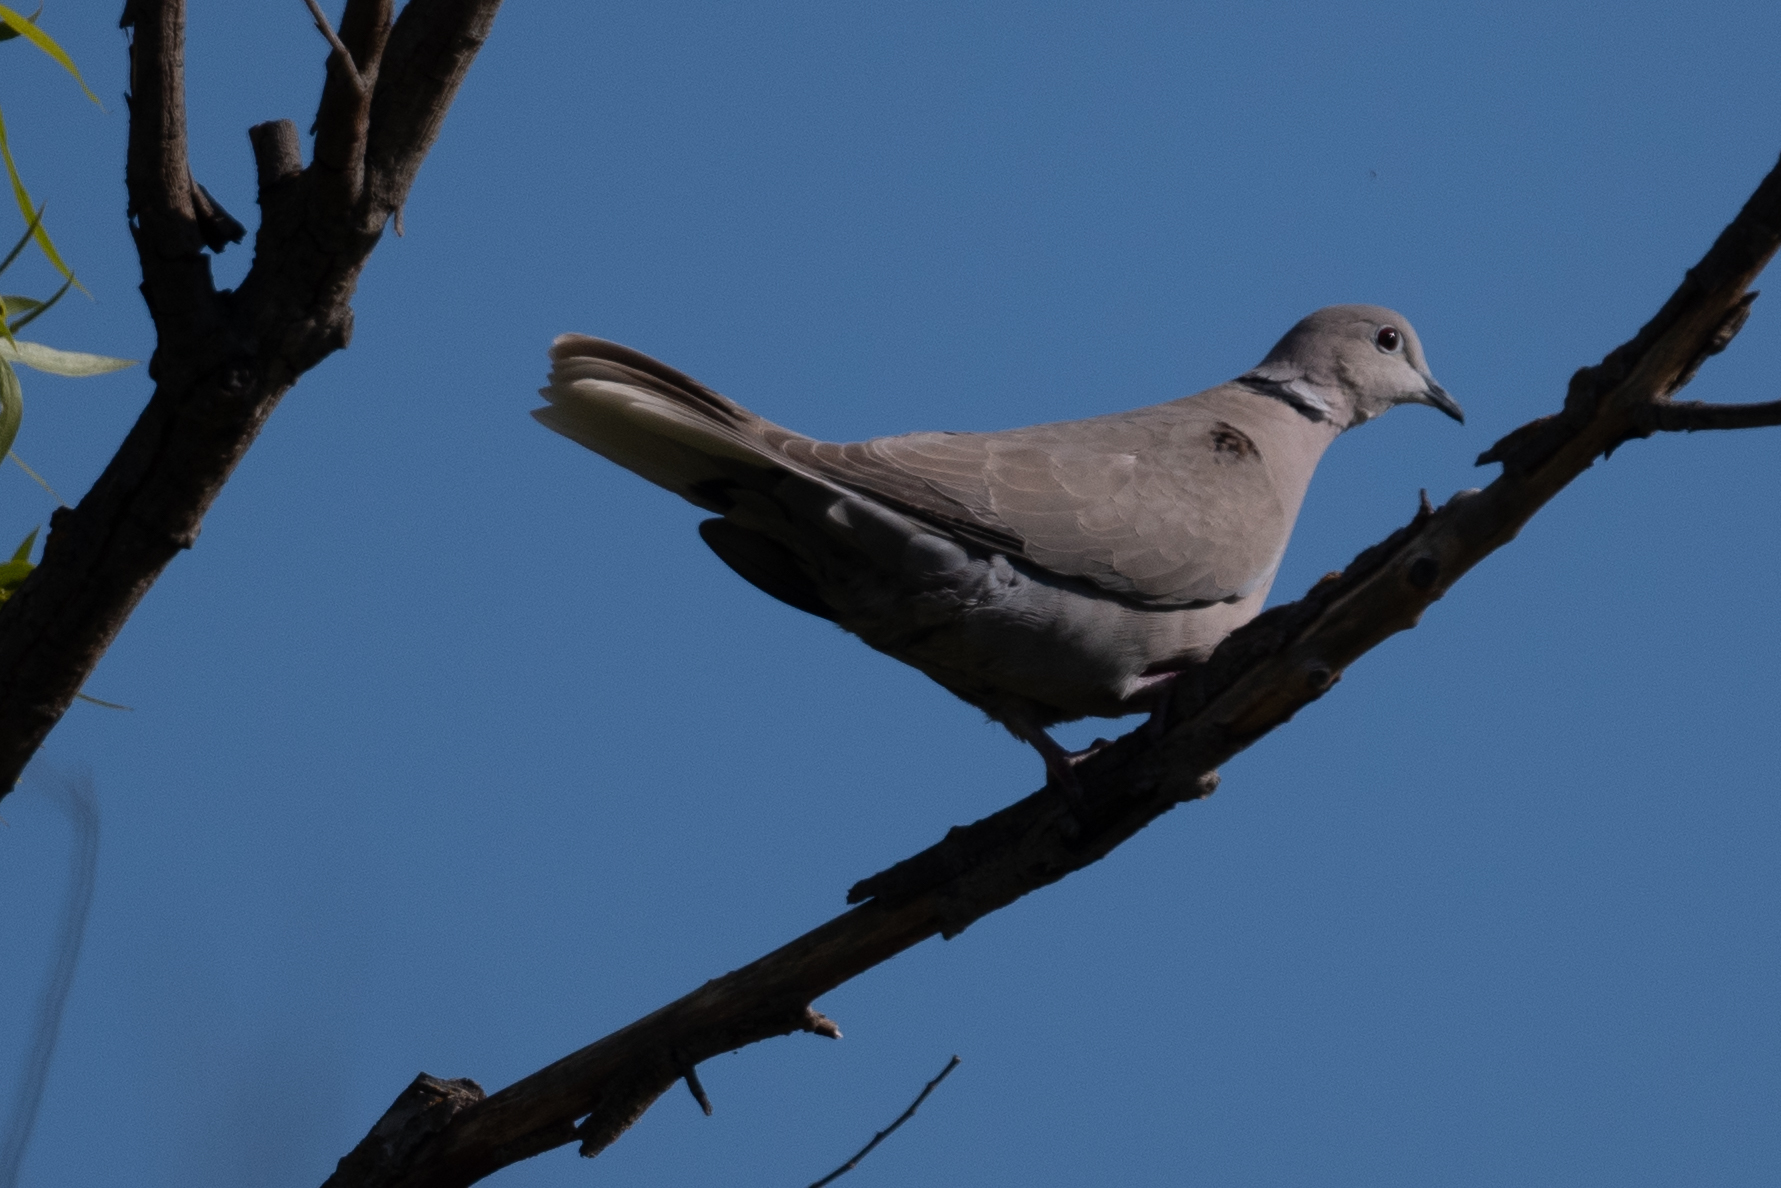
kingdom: Animalia
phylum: Chordata
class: Aves
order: Columbiformes
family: Columbidae
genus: Streptopelia
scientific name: Streptopelia decaocto
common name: Eurasian collared dove
